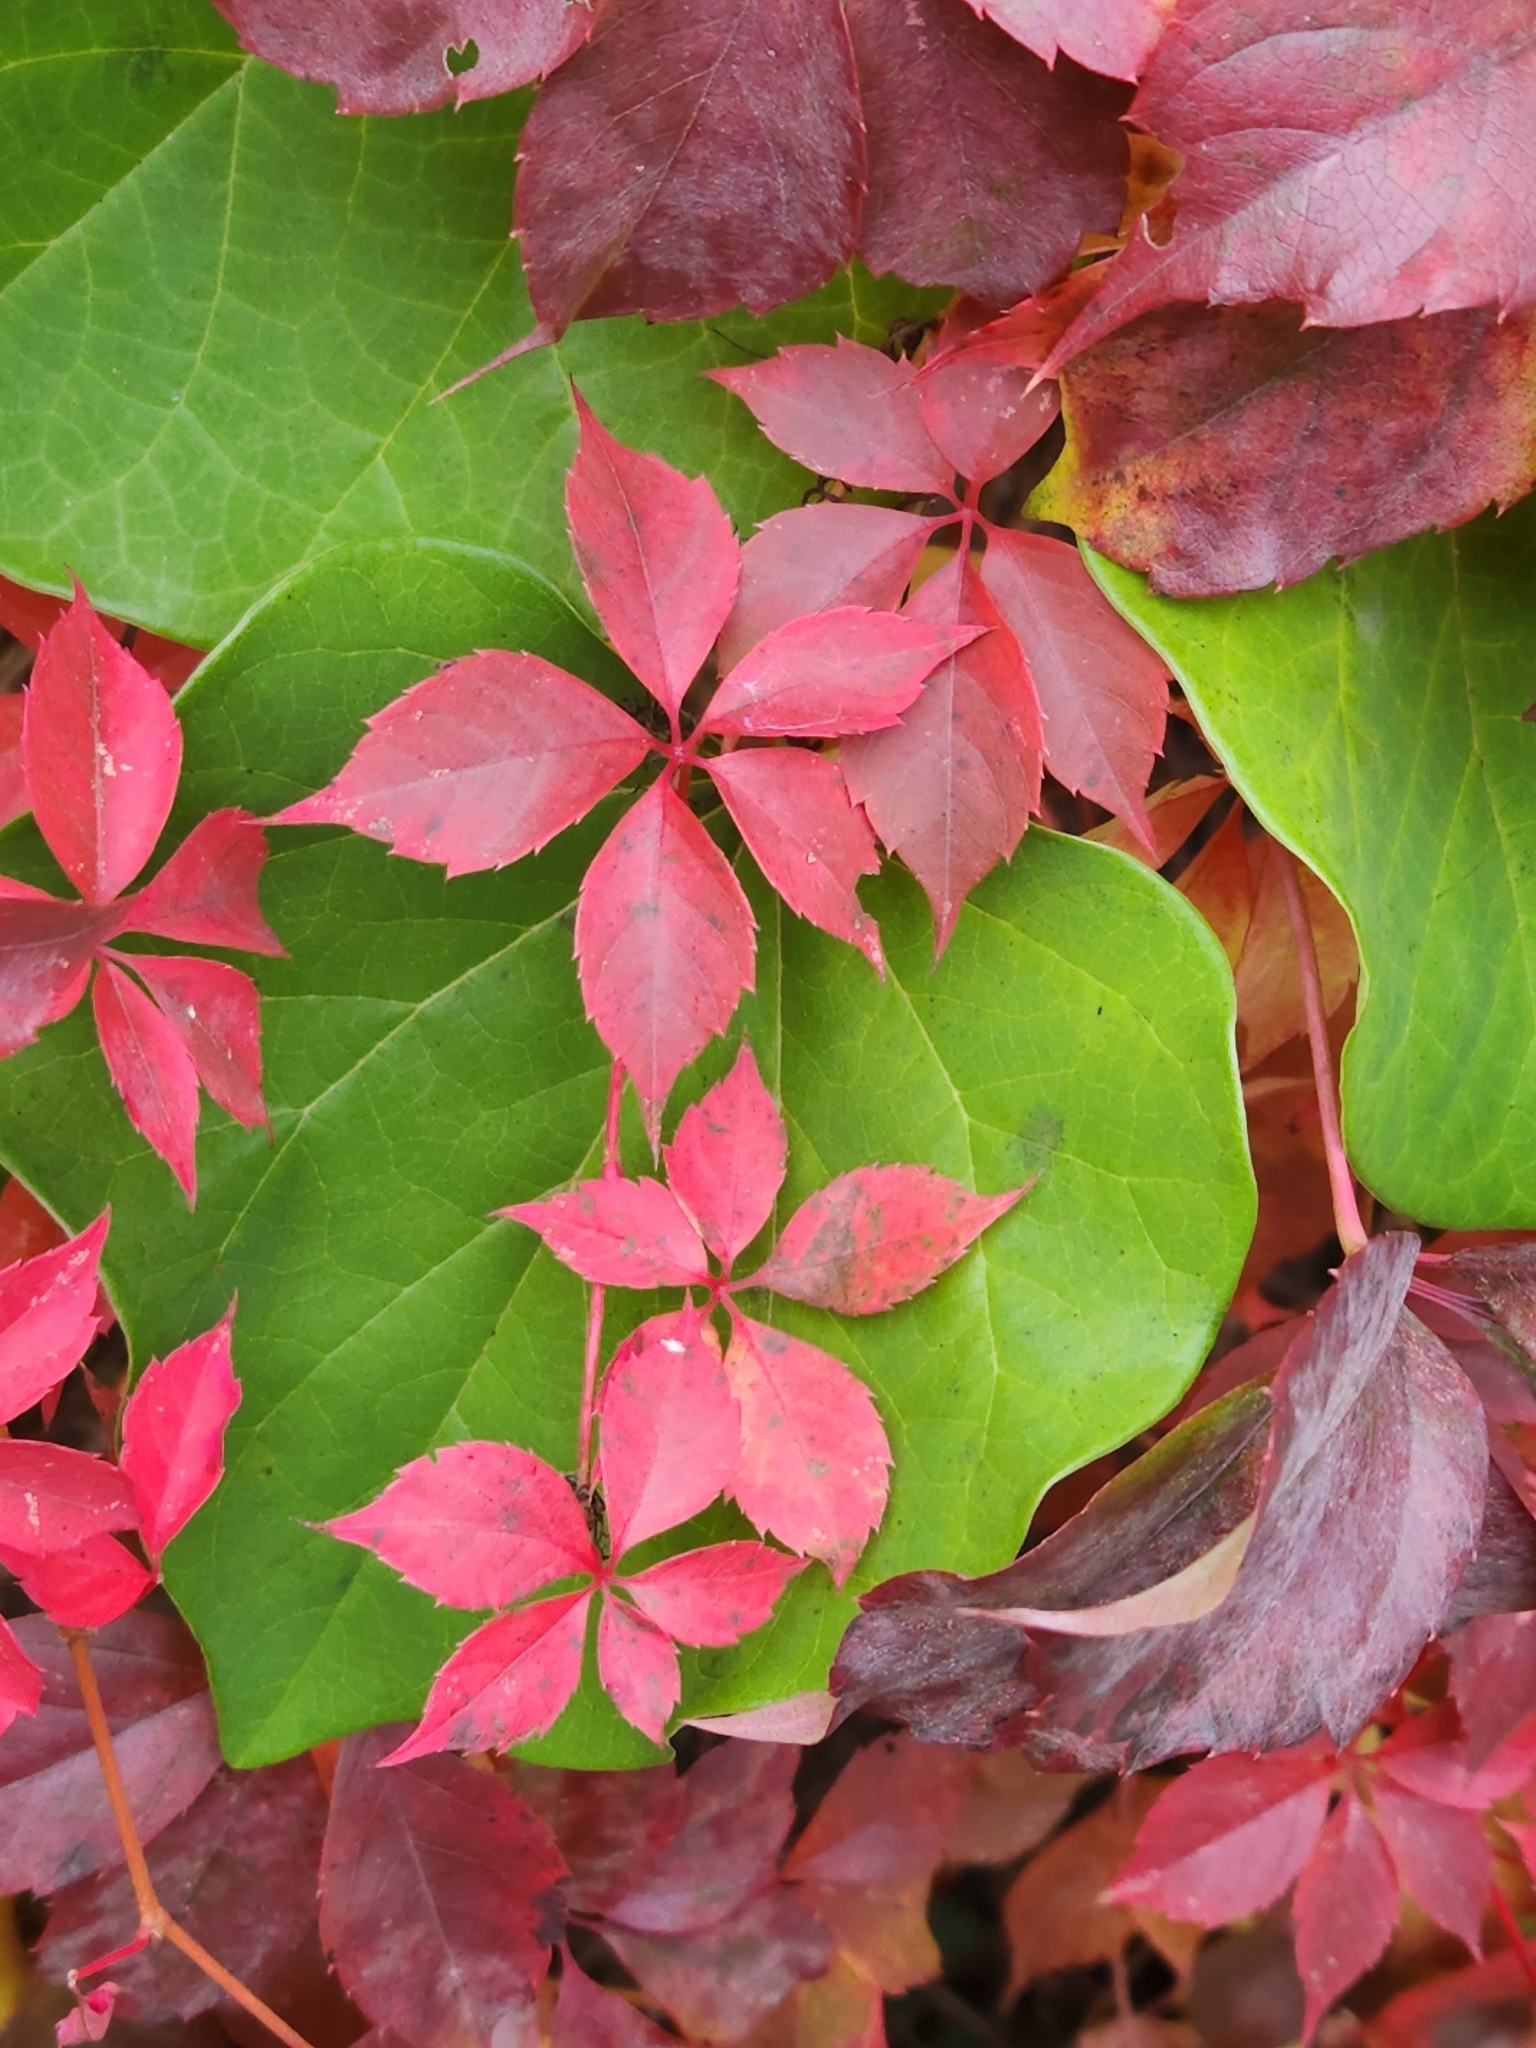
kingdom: Plantae
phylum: Tracheophyta
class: Magnoliopsida
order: Vitales
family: Vitaceae
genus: Parthenocissus
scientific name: Parthenocissus quinquefolia
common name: Virginia-creeper
